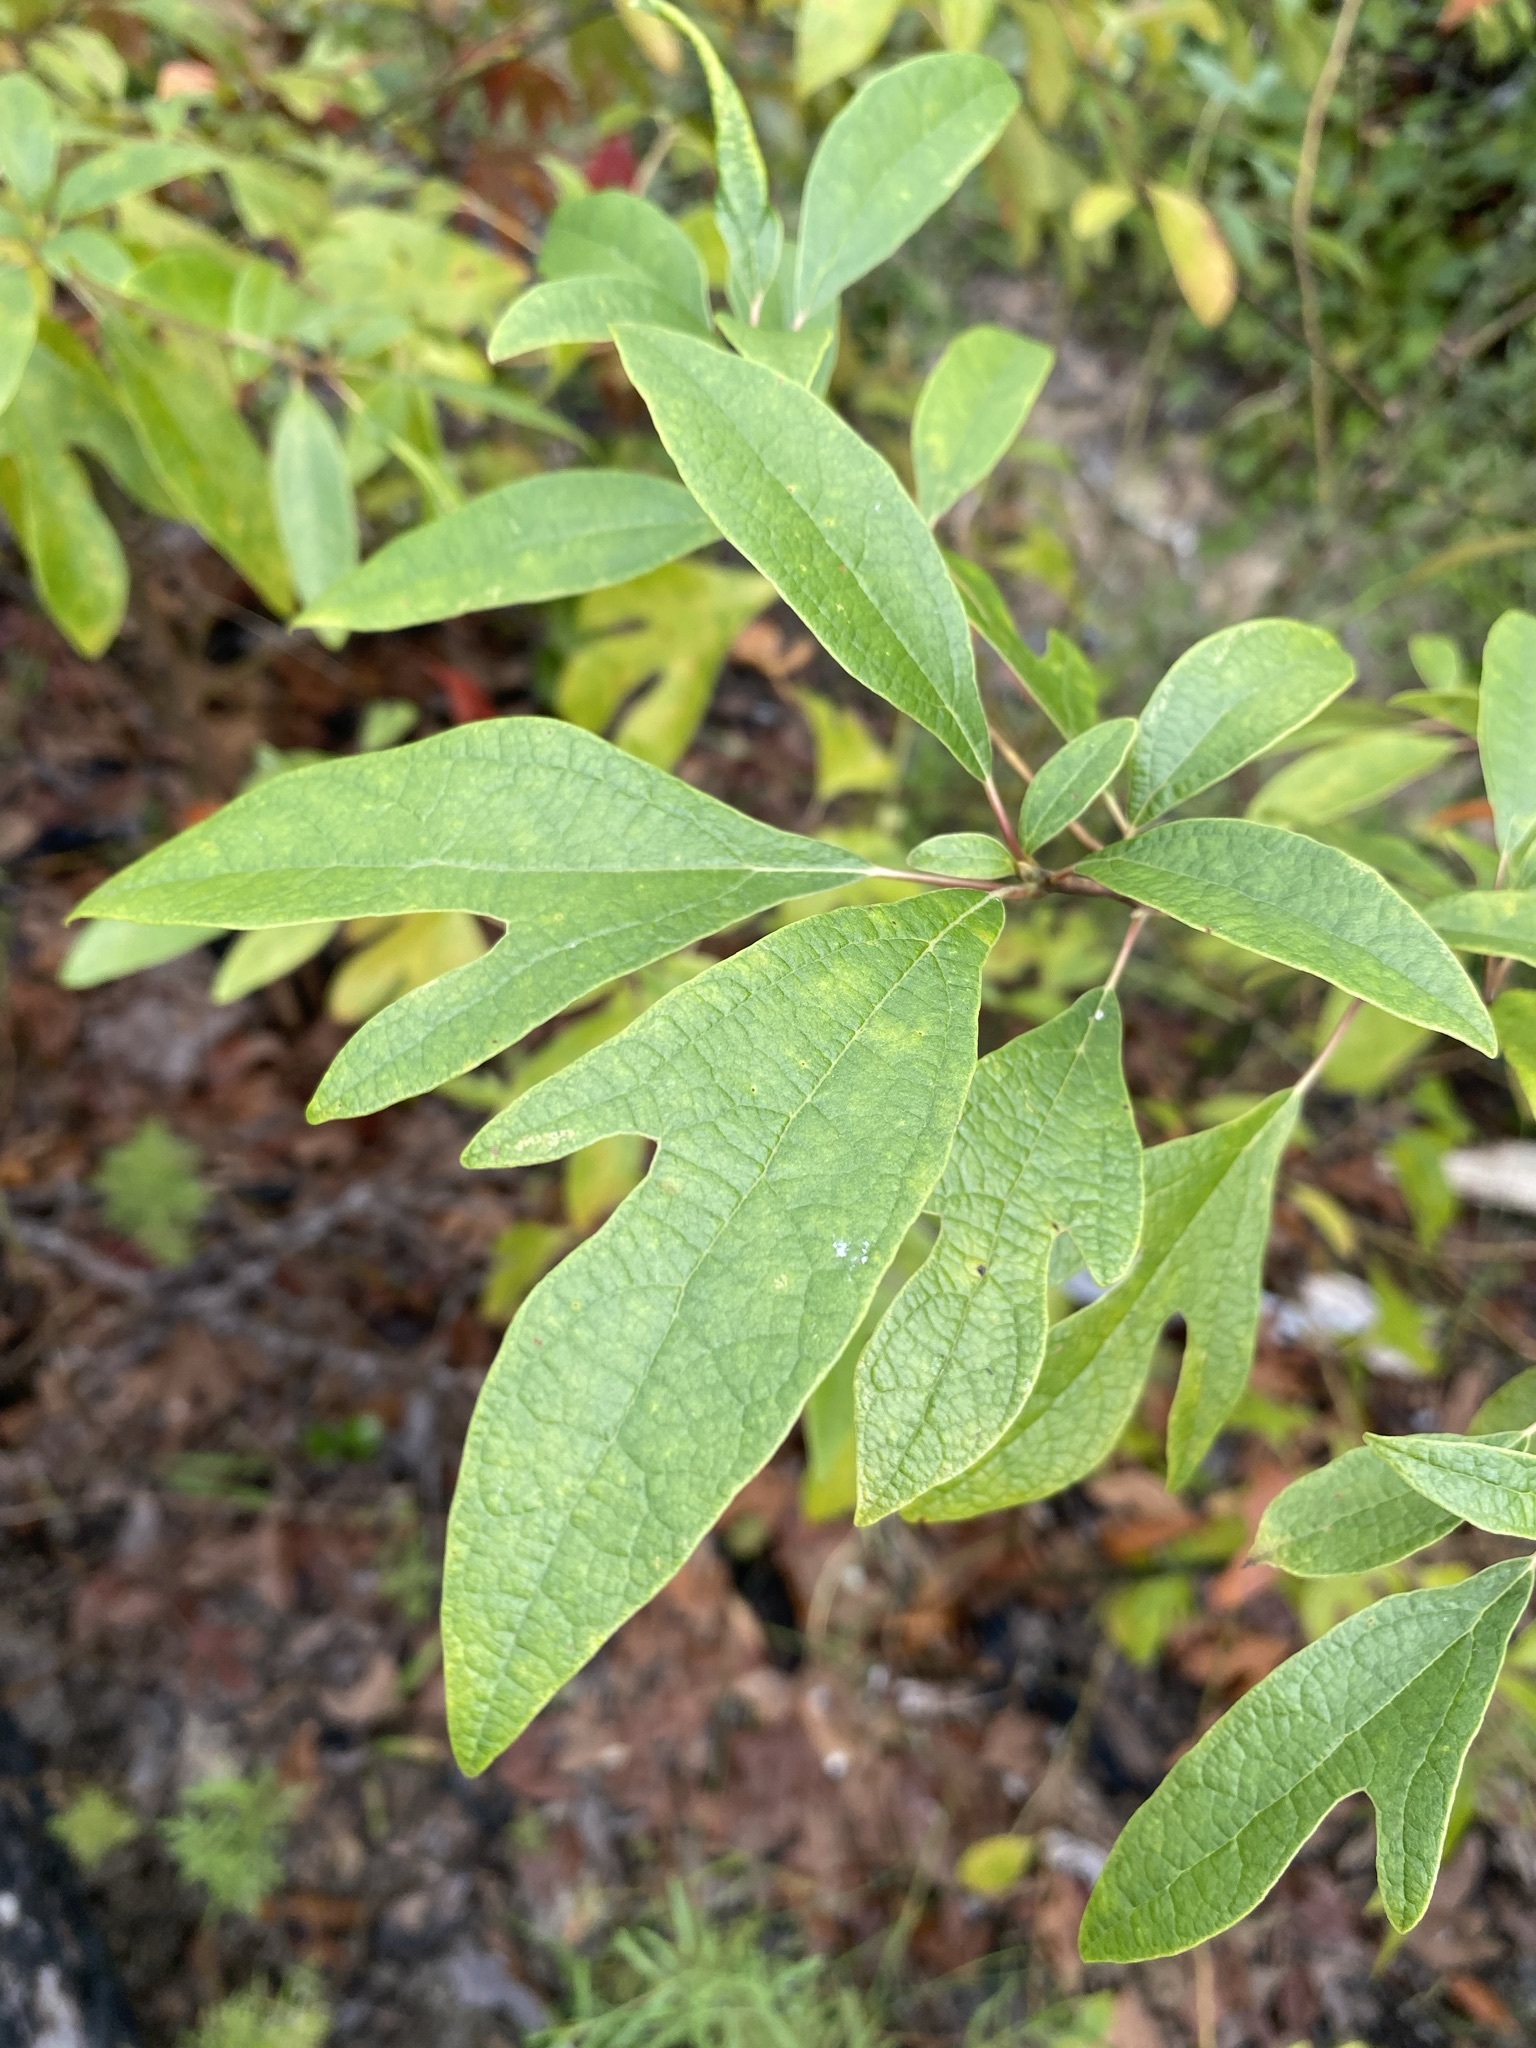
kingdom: Plantae
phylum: Tracheophyta
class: Magnoliopsida
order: Laurales
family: Lauraceae
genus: Sassafras
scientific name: Sassafras albidum
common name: Sassafras
